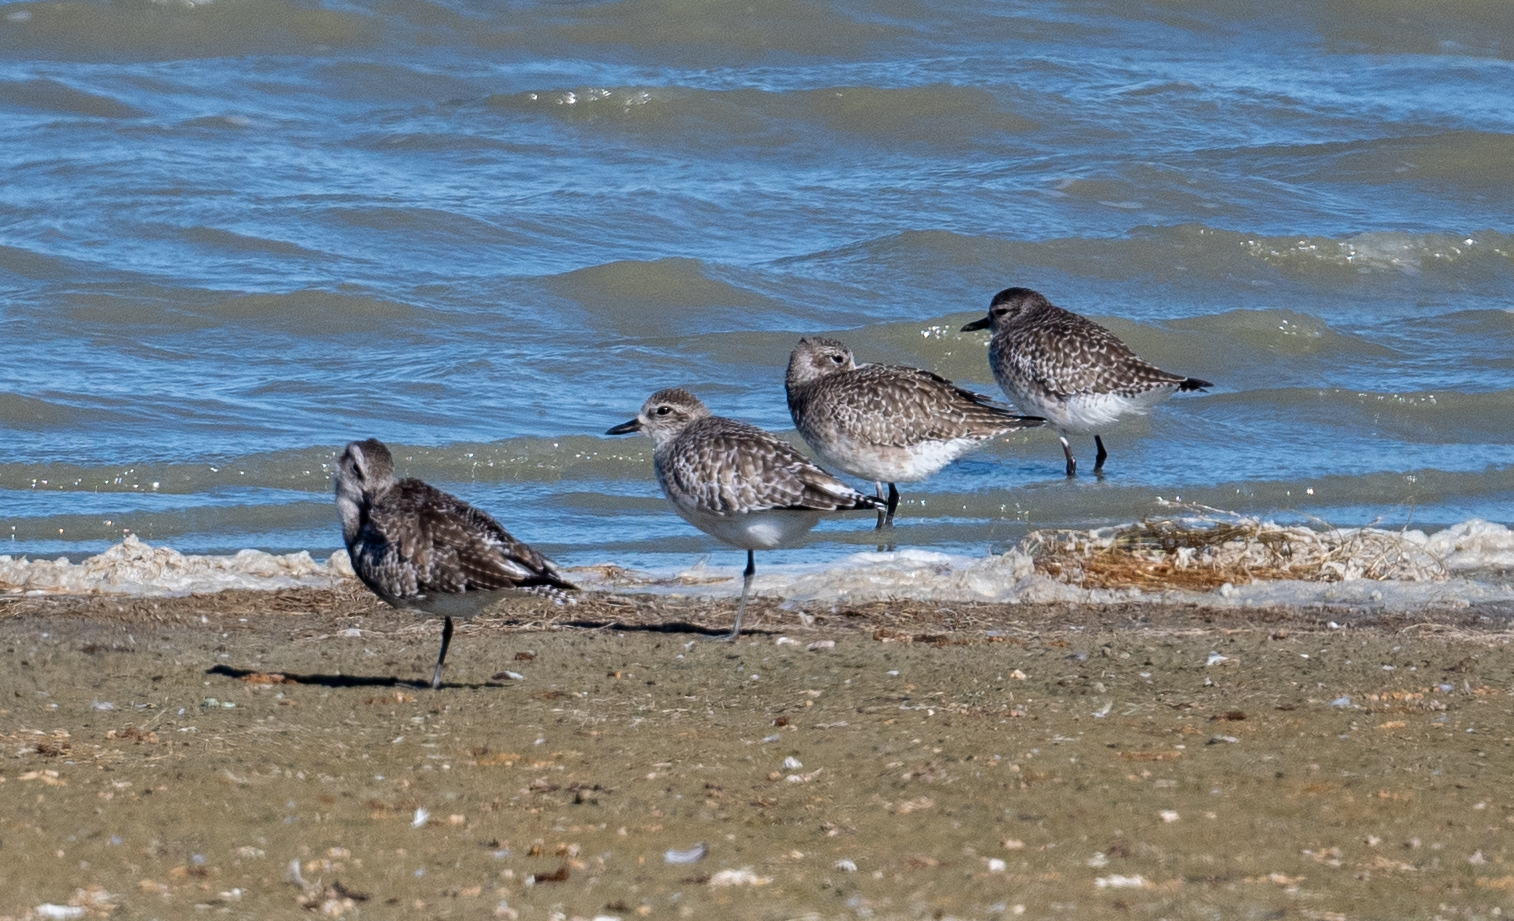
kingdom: Animalia
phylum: Chordata
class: Aves
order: Charadriiformes
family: Charadriidae
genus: Pluvialis
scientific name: Pluvialis squatarola
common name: Grey plover
